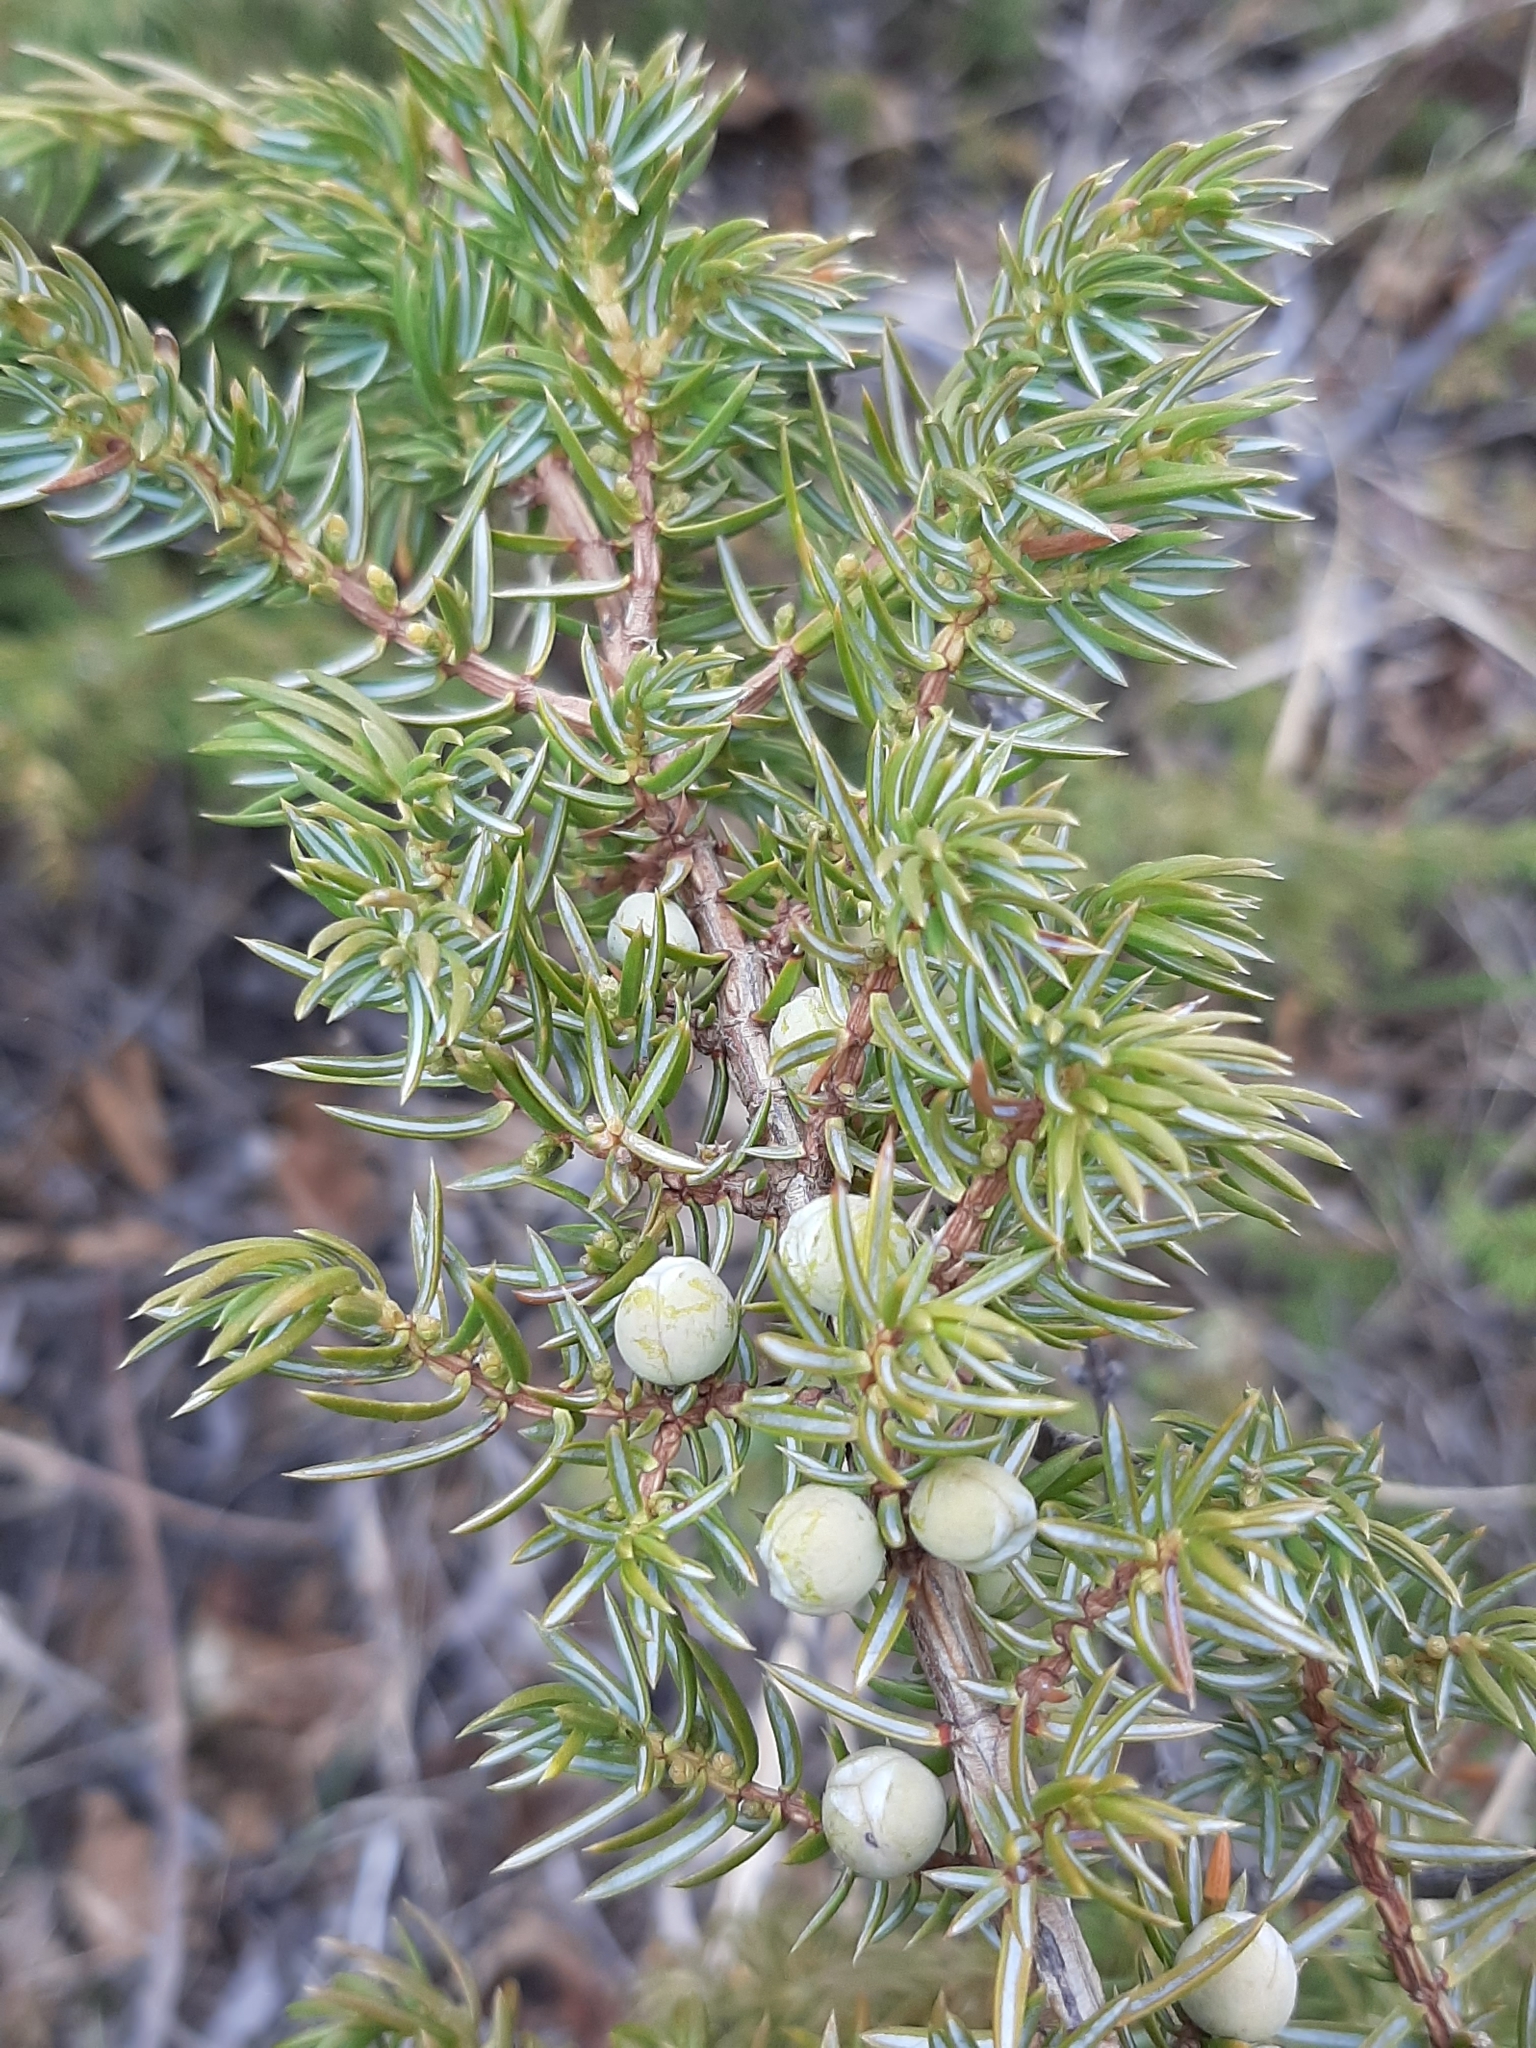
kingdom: Plantae
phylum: Tracheophyta
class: Pinopsida
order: Pinales
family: Cupressaceae
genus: Juniperus
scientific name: Juniperus communis
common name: Common juniper
